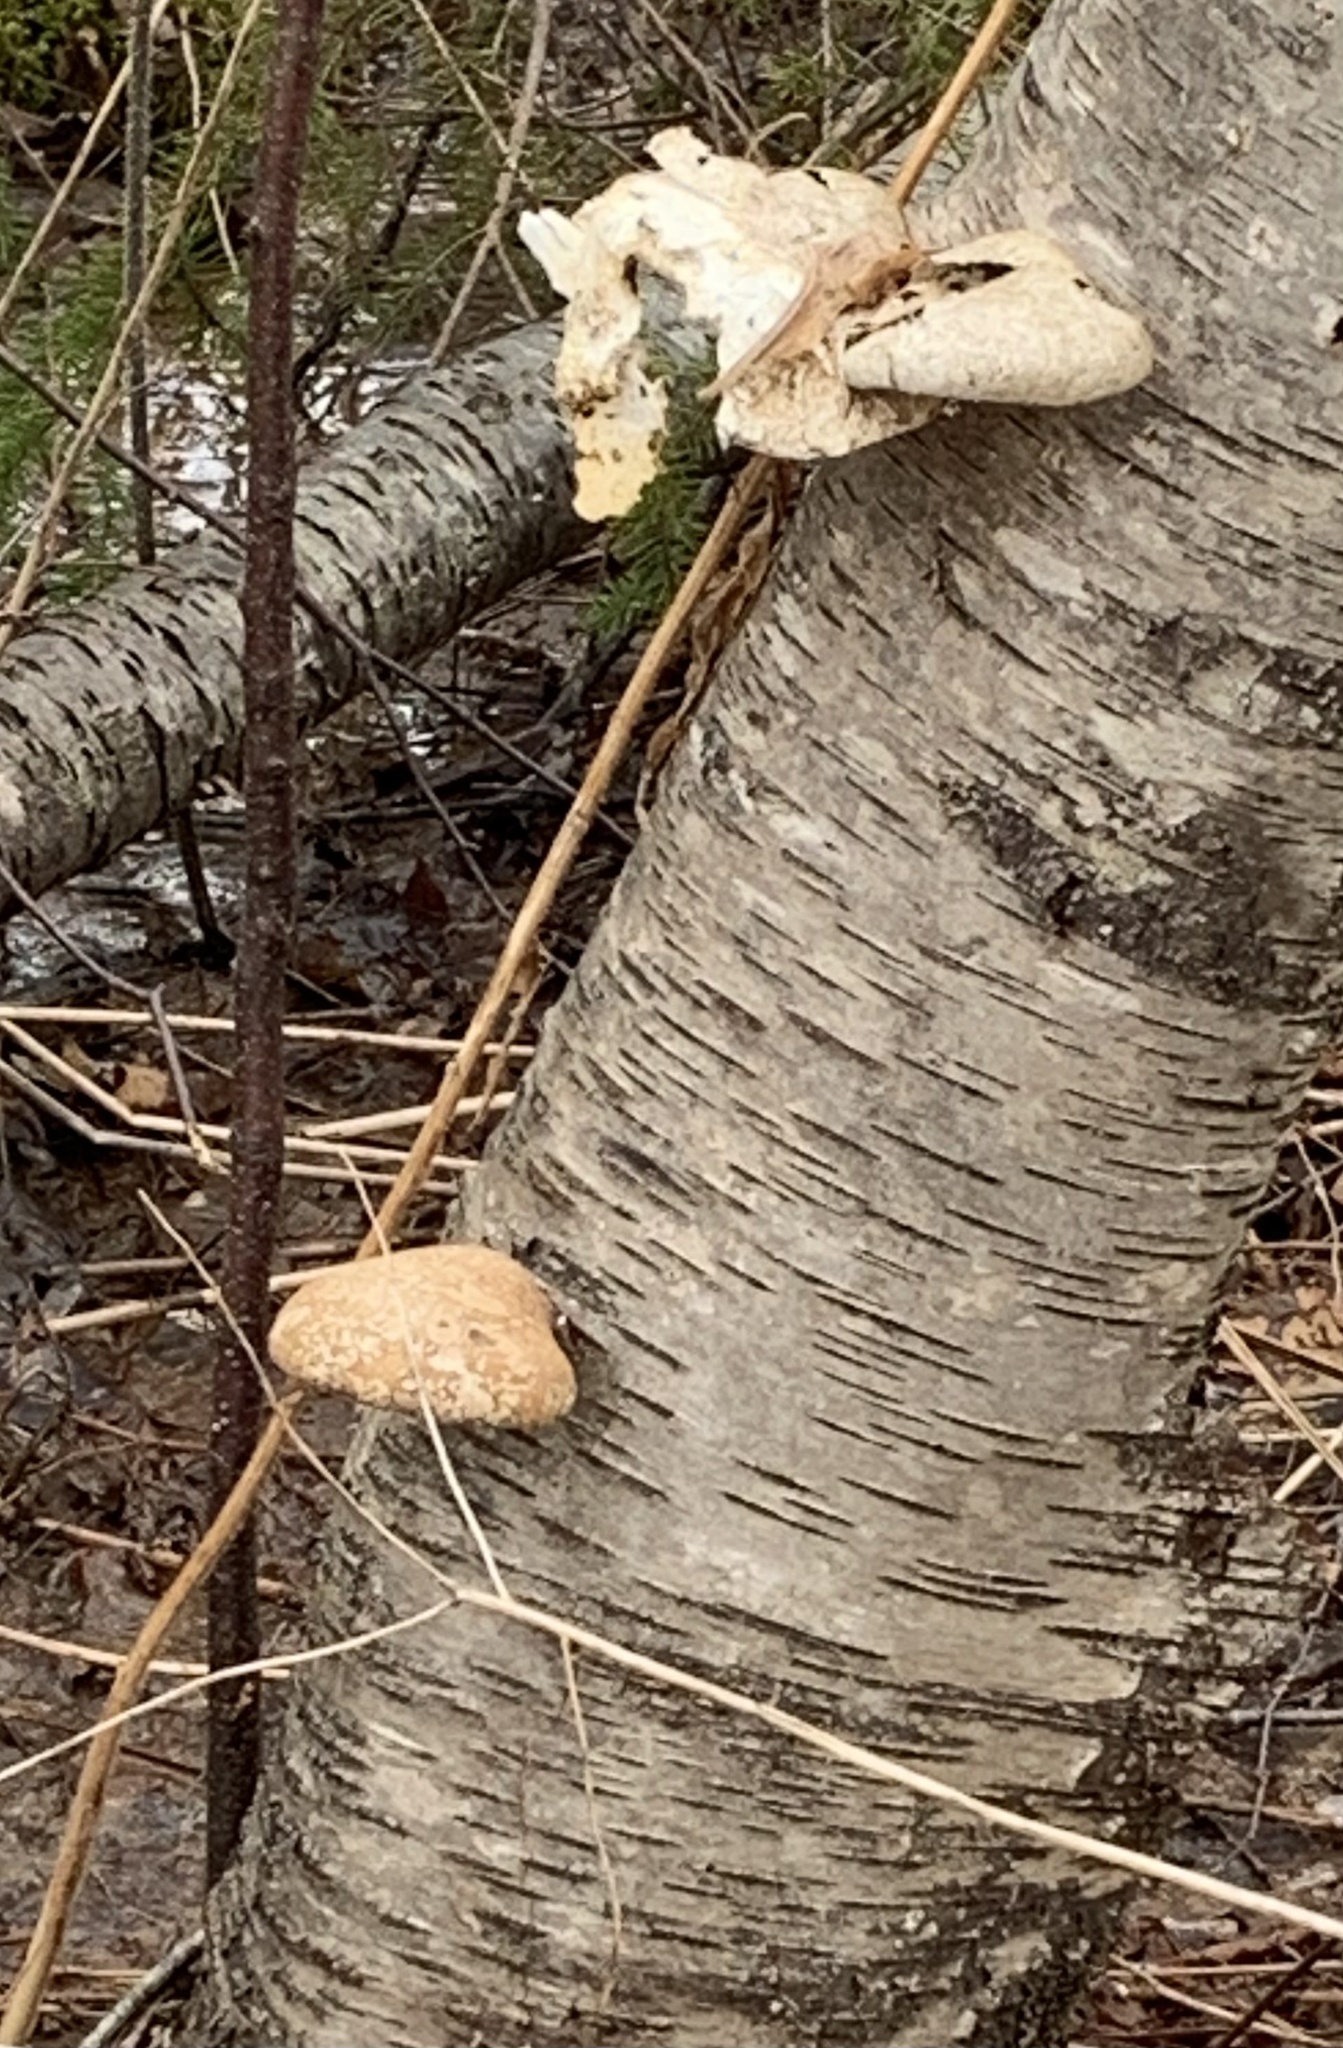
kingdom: Fungi
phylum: Basidiomycota
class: Agaricomycetes
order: Polyporales
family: Fomitopsidaceae
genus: Fomitopsis
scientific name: Fomitopsis betulina
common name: Birch polypore
